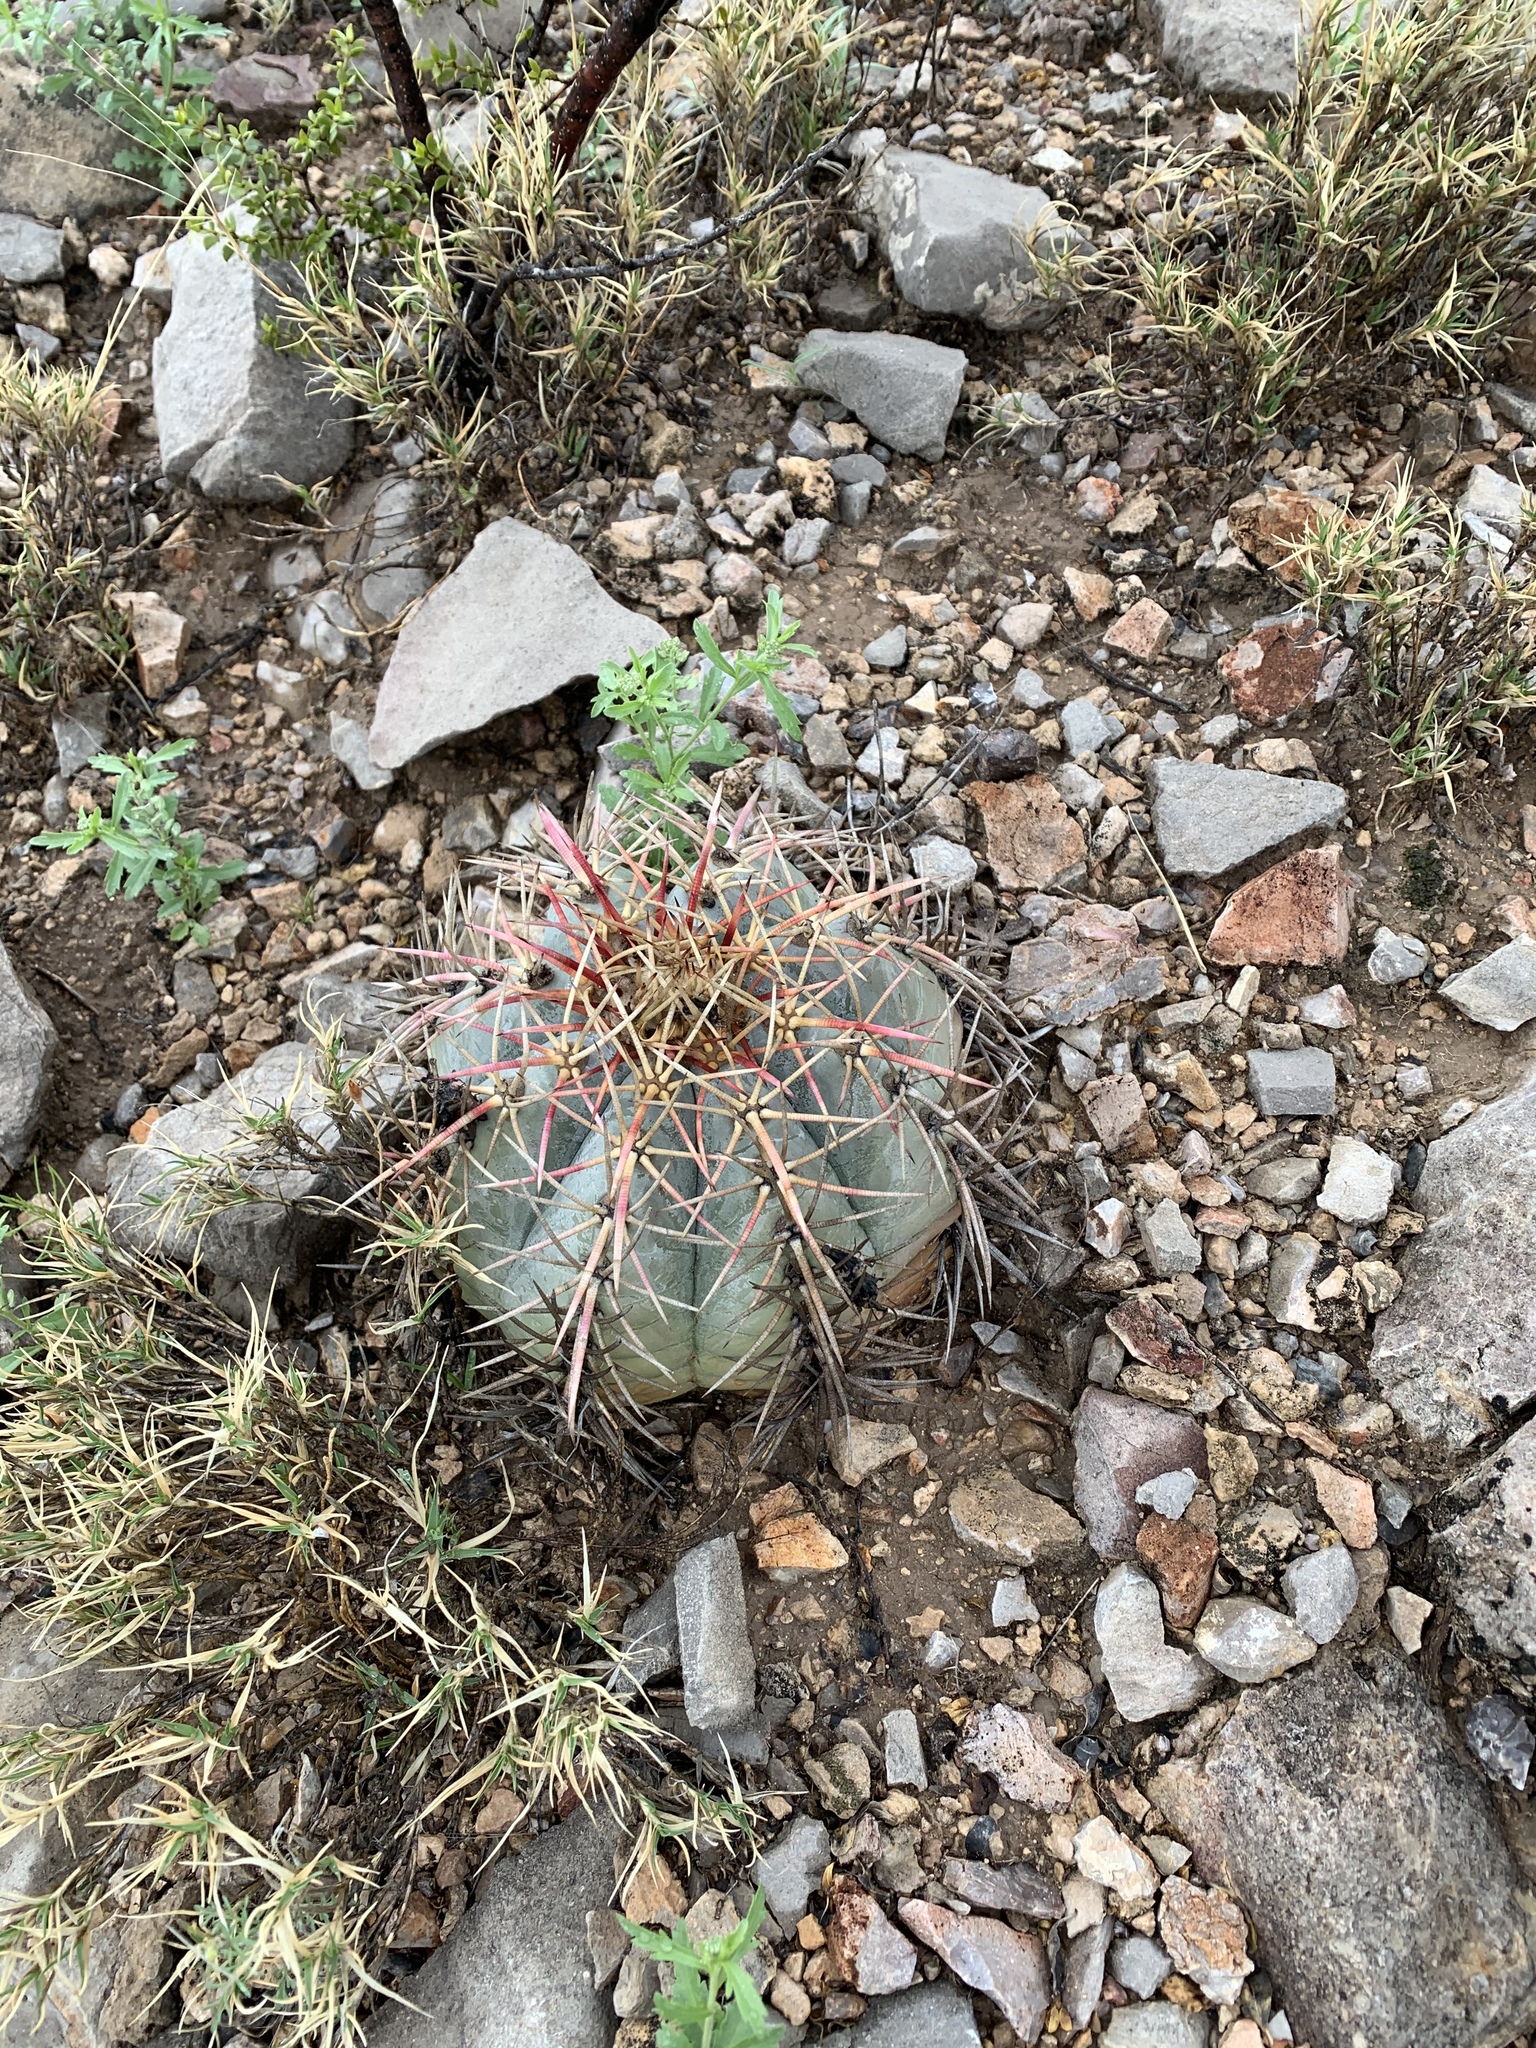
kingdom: Plantae
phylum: Tracheophyta
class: Magnoliopsida
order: Caryophyllales
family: Cactaceae
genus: Echinocactus
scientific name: Echinocactus horizonthalonius
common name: Devilshead
